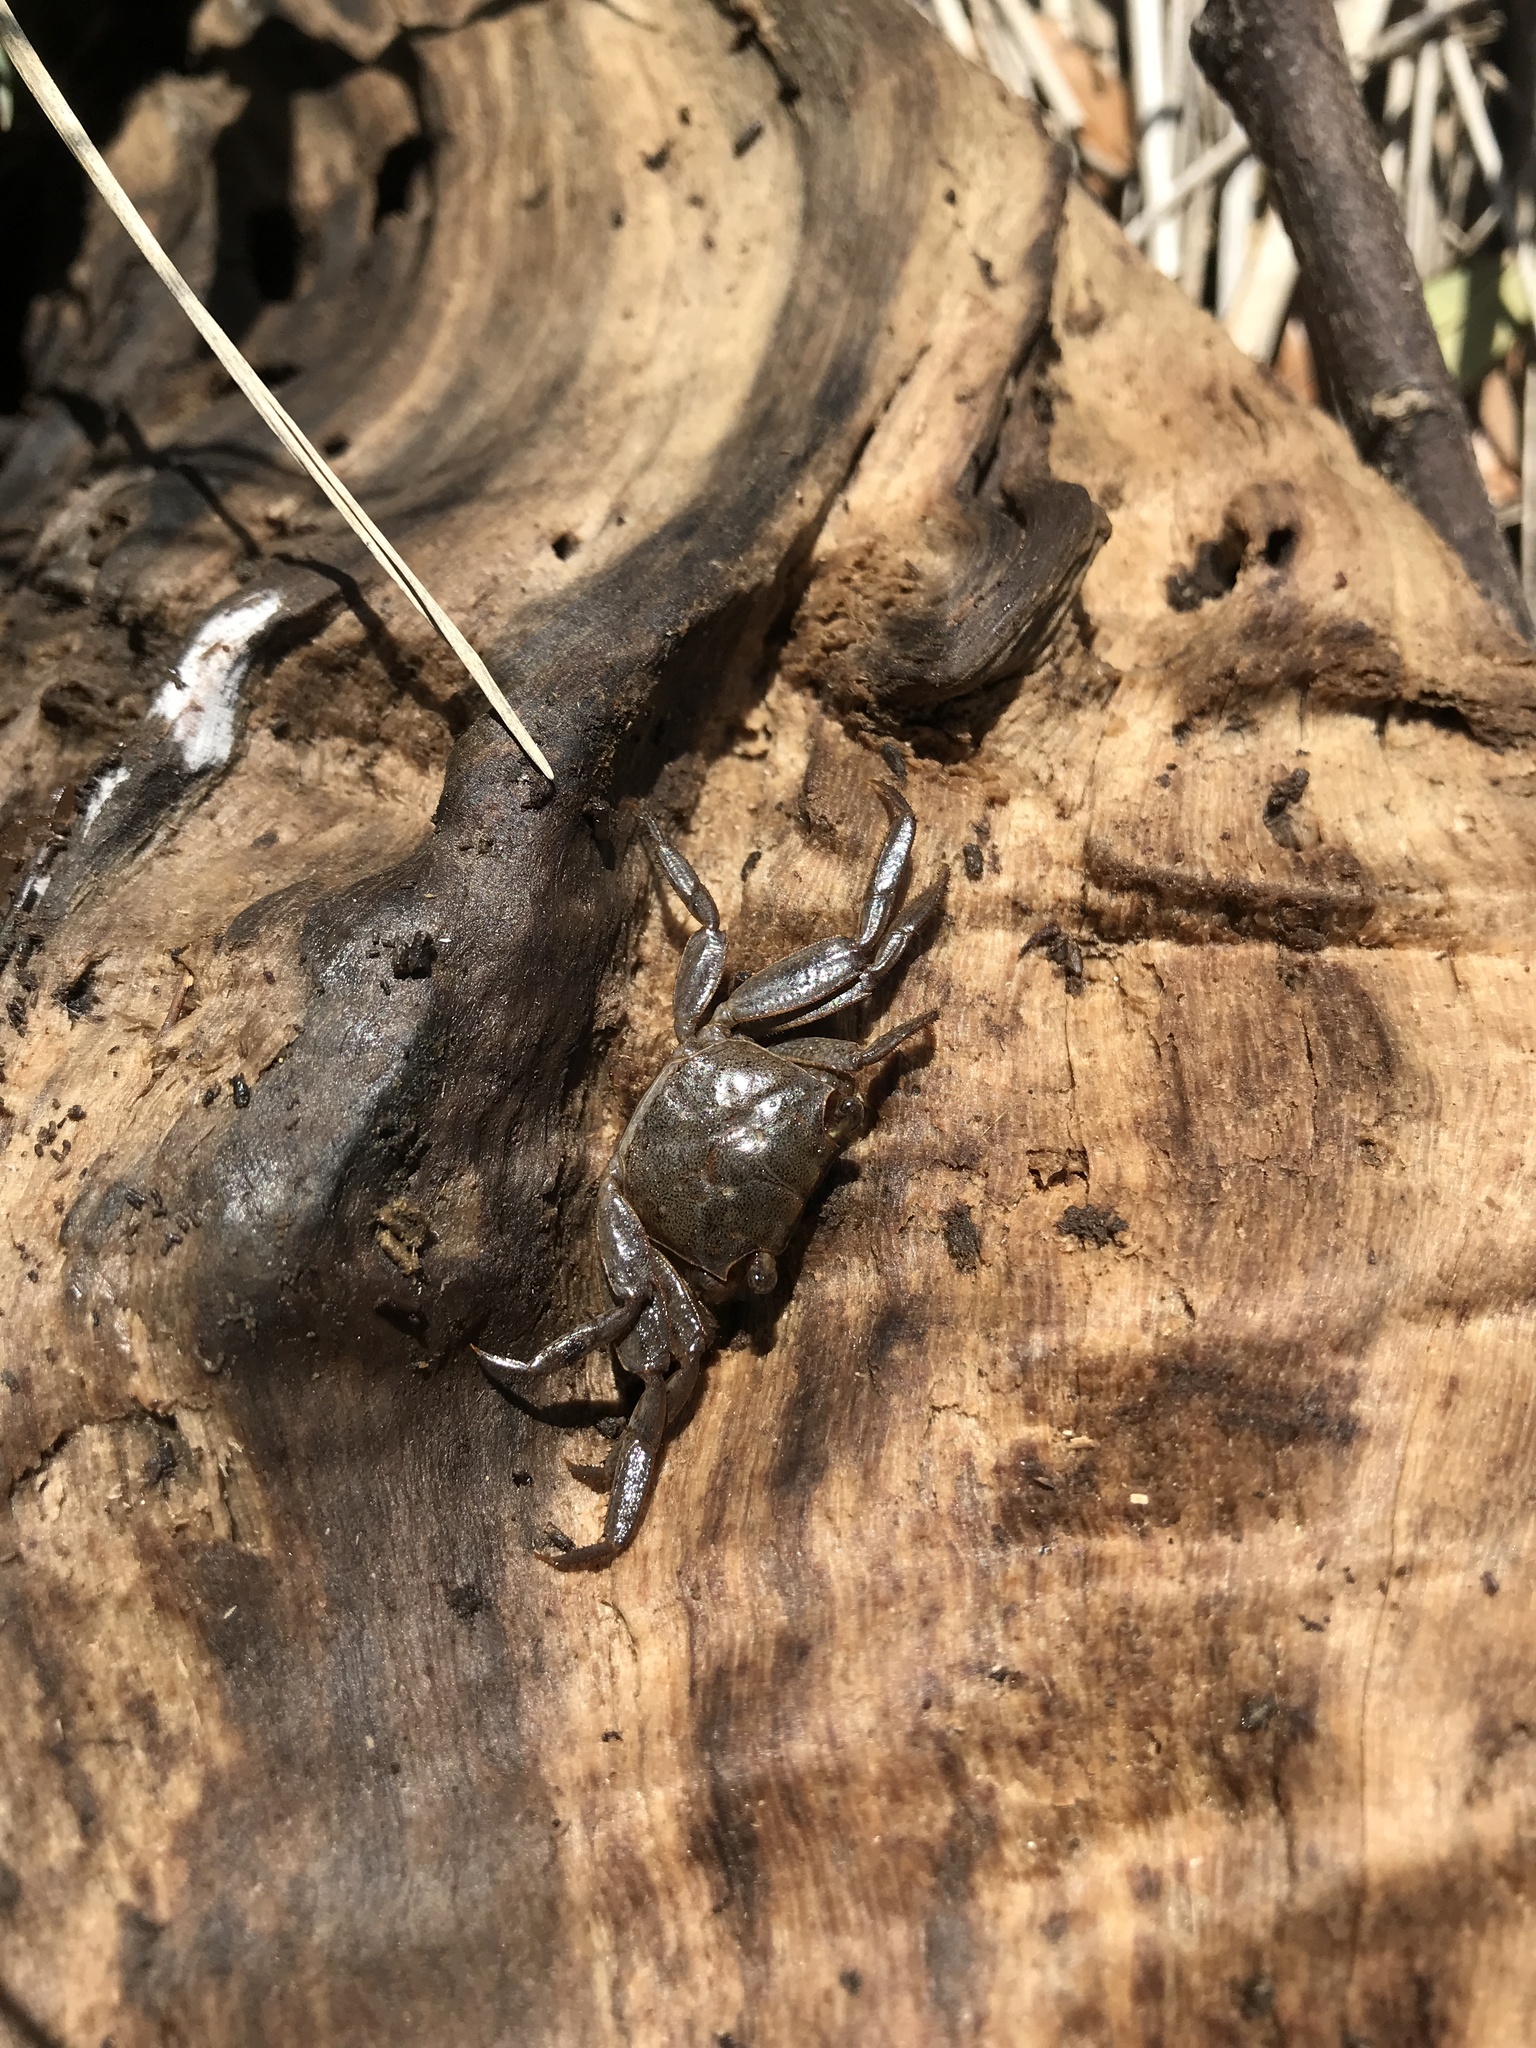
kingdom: Animalia
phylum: Arthropoda
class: Malacostraca
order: Decapoda
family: Sesarmidae
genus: Armases
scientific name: Armases cinereum
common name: Squareback marsh crab
